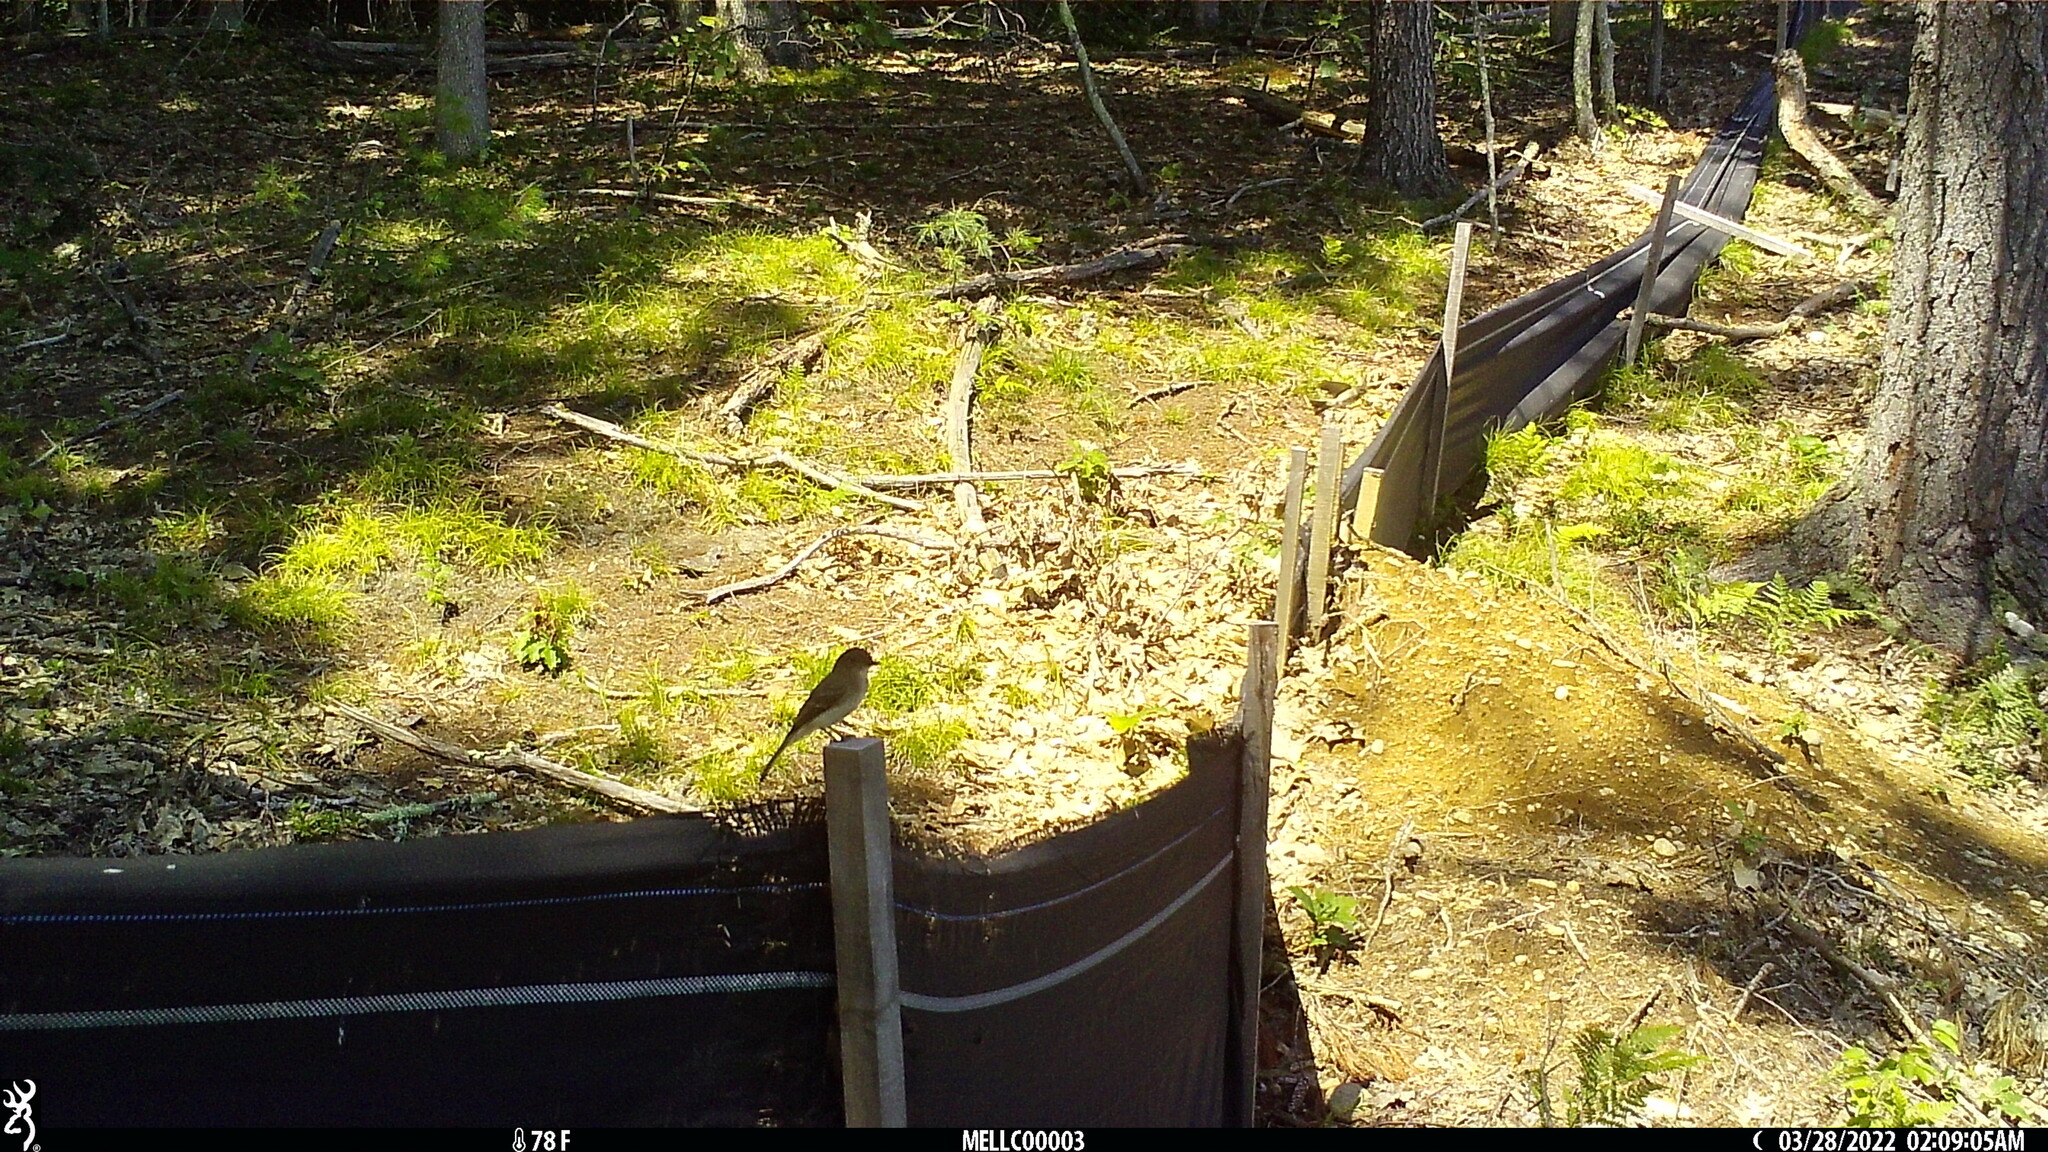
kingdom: Animalia
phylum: Chordata
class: Aves
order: Passeriformes
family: Tyrannidae
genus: Sayornis
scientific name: Sayornis phoebe
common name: Eastern phoebe
